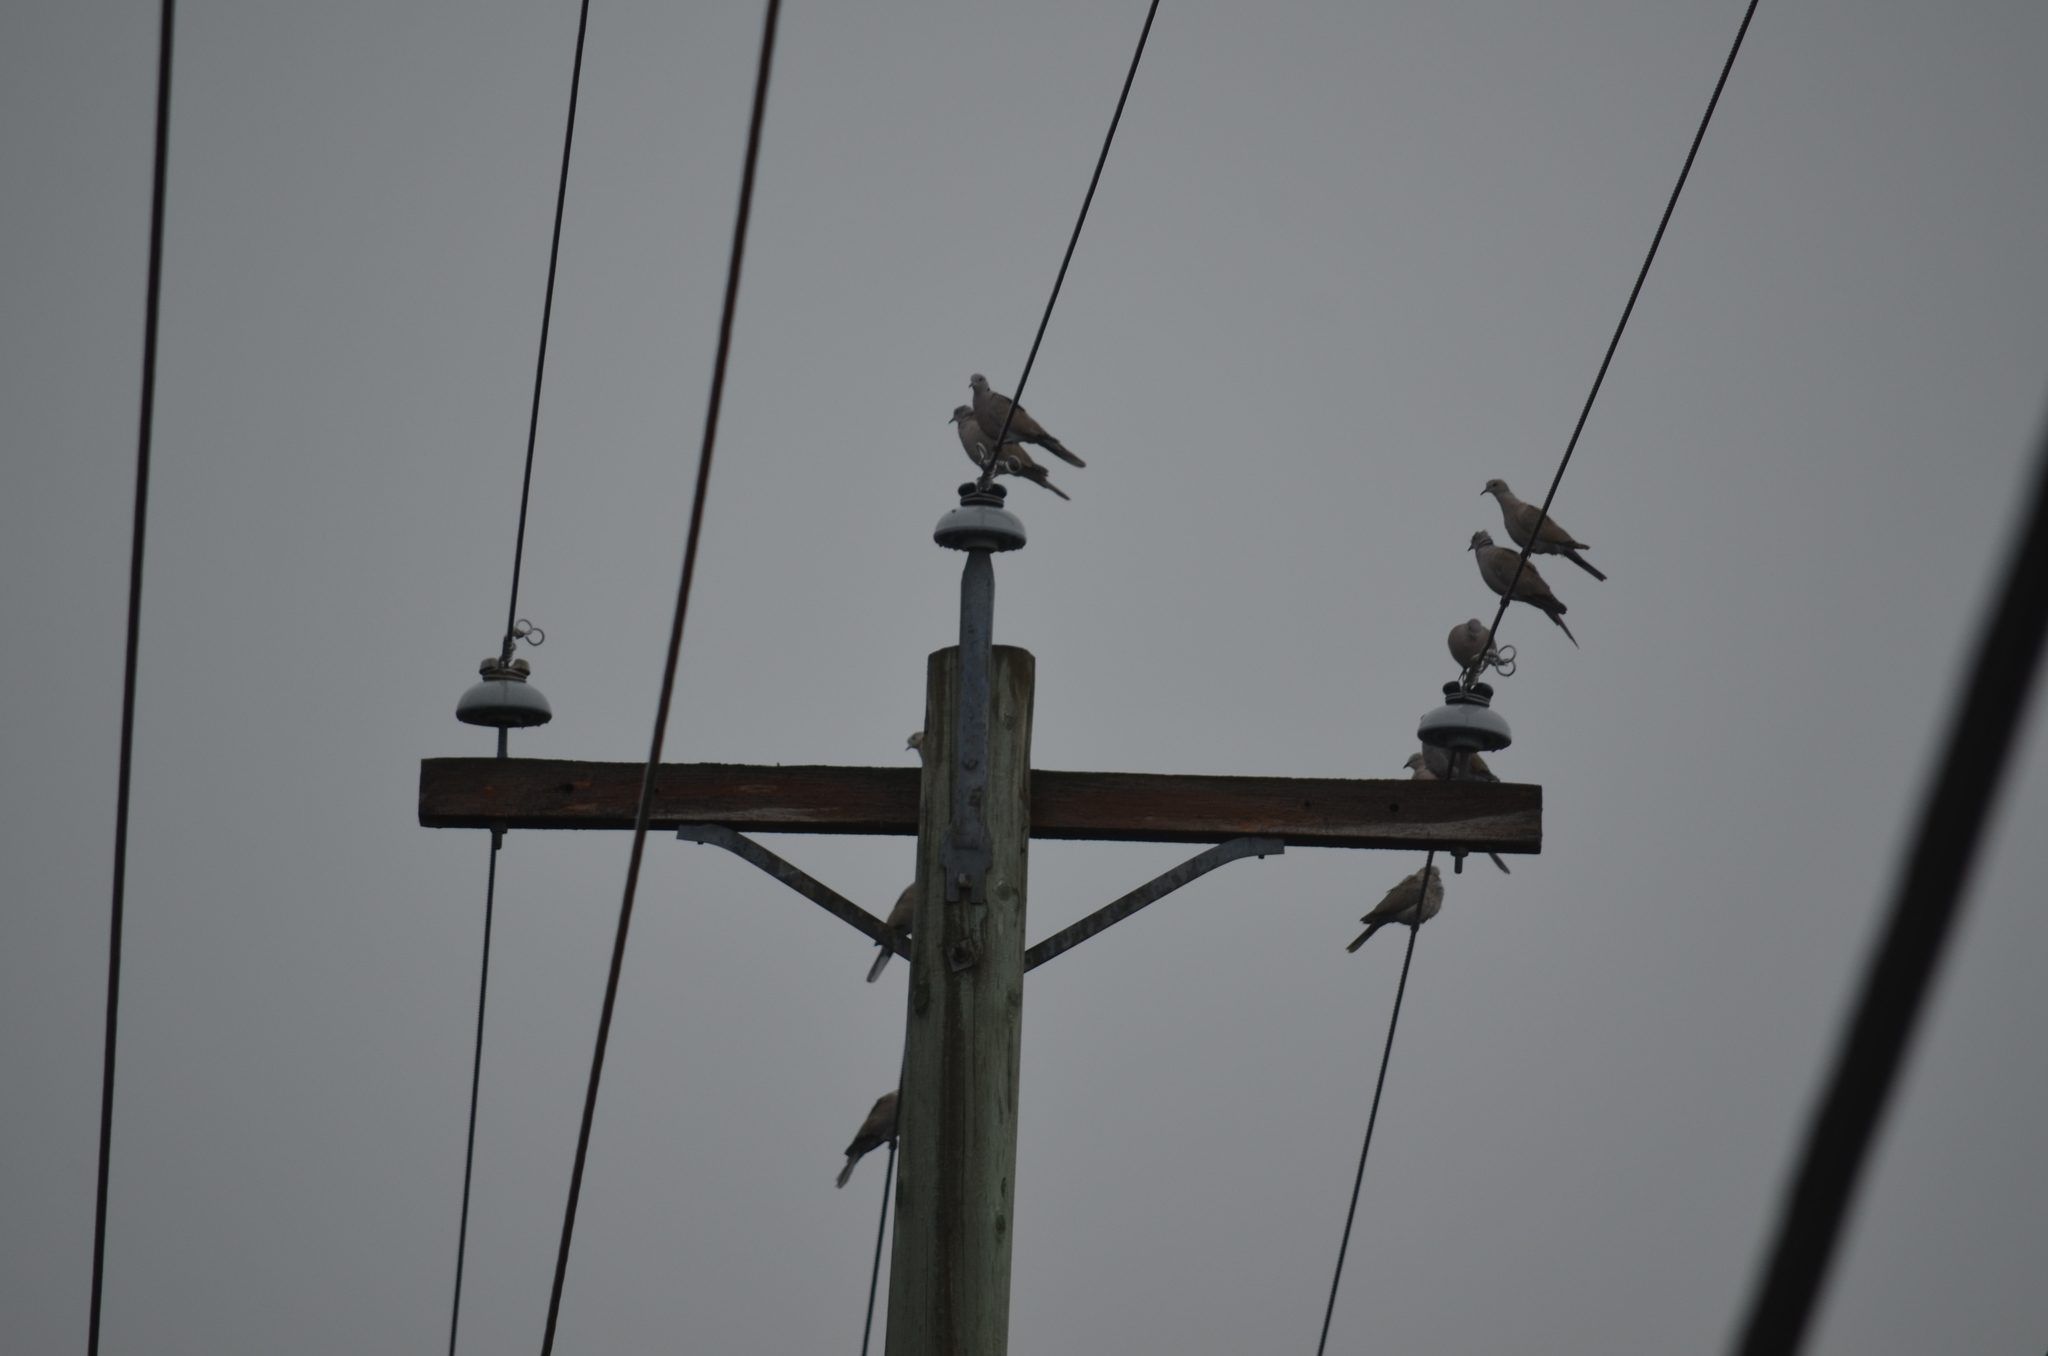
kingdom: Animalia
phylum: Chordata
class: Aves
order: Columbiformes
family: Columbidae
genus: Streptopelia
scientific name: Streptopelia decaocto
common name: Eurasian collared dove
